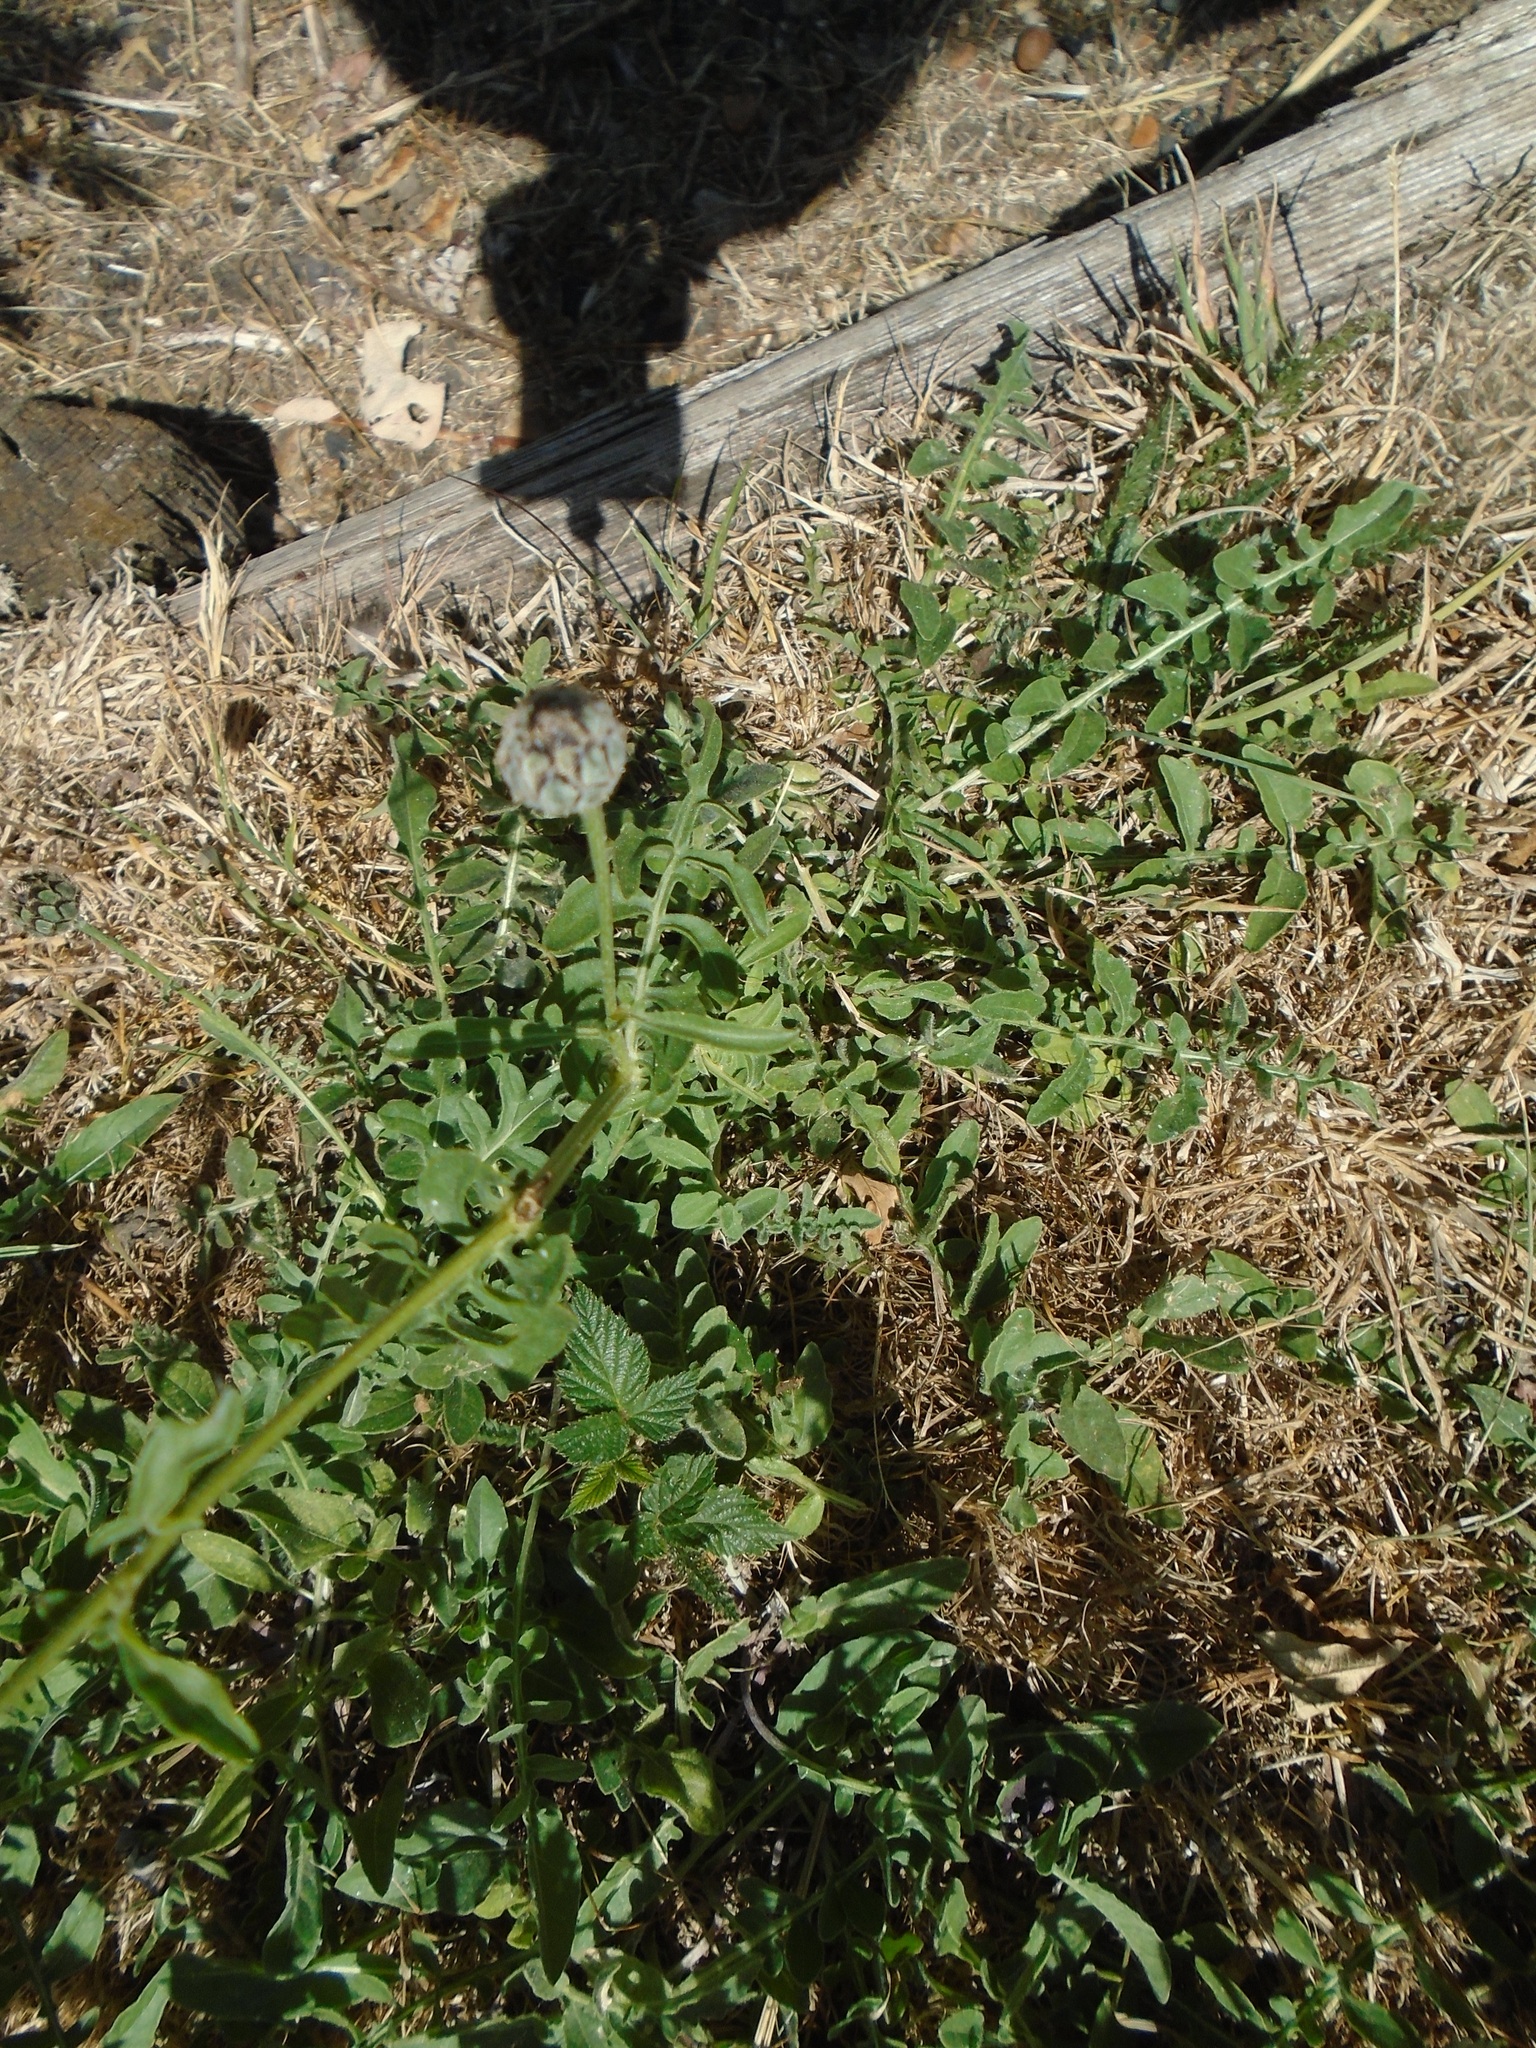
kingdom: Plantae
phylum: Tracheophyta
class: Magnoliopsida
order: Asterales
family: Asteraceae
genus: Centaurea
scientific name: Centaurea scabiosa
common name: Greater knapweed
